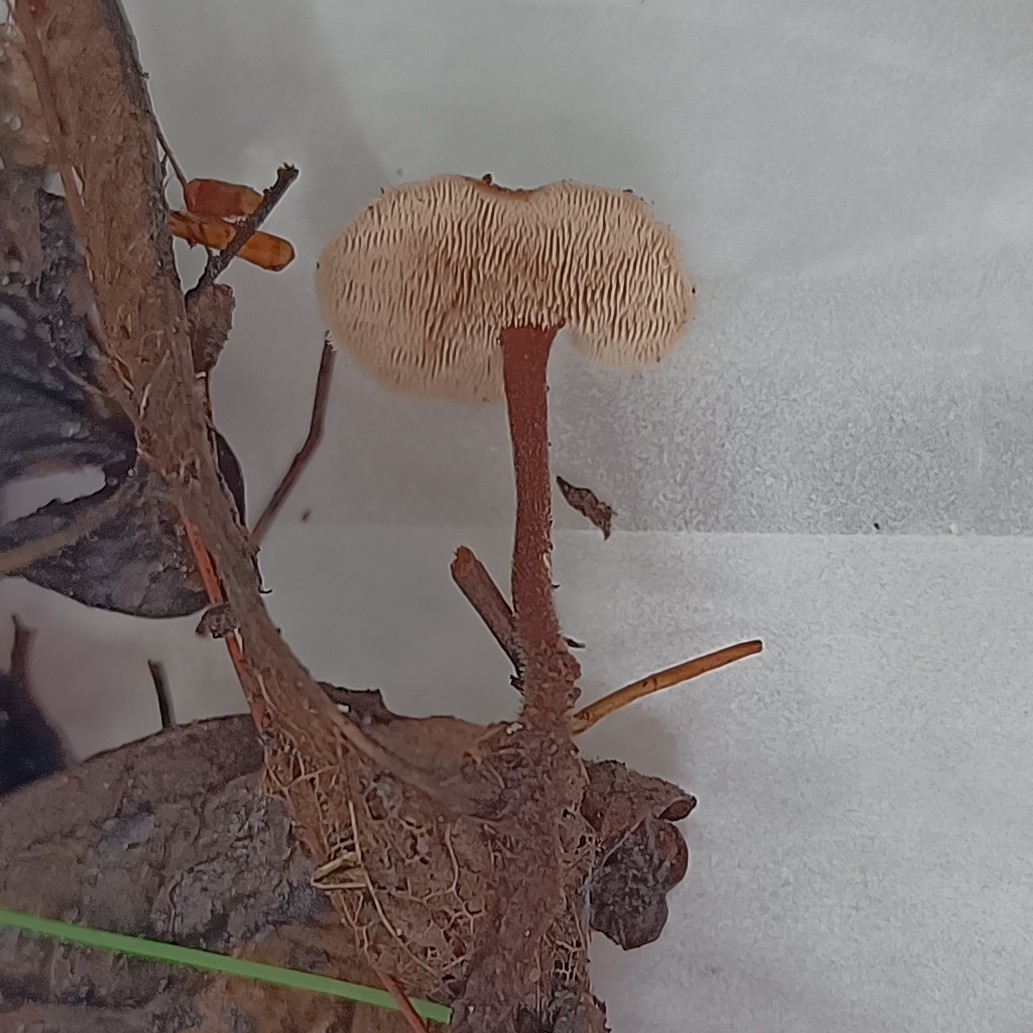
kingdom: Fungi
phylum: Basidiomycota
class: Agaricomycetes
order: Russulales
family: Auriscalpiaceae
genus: Auriscalpium
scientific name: Auriscalpium vulgare
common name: Earpick fungus
